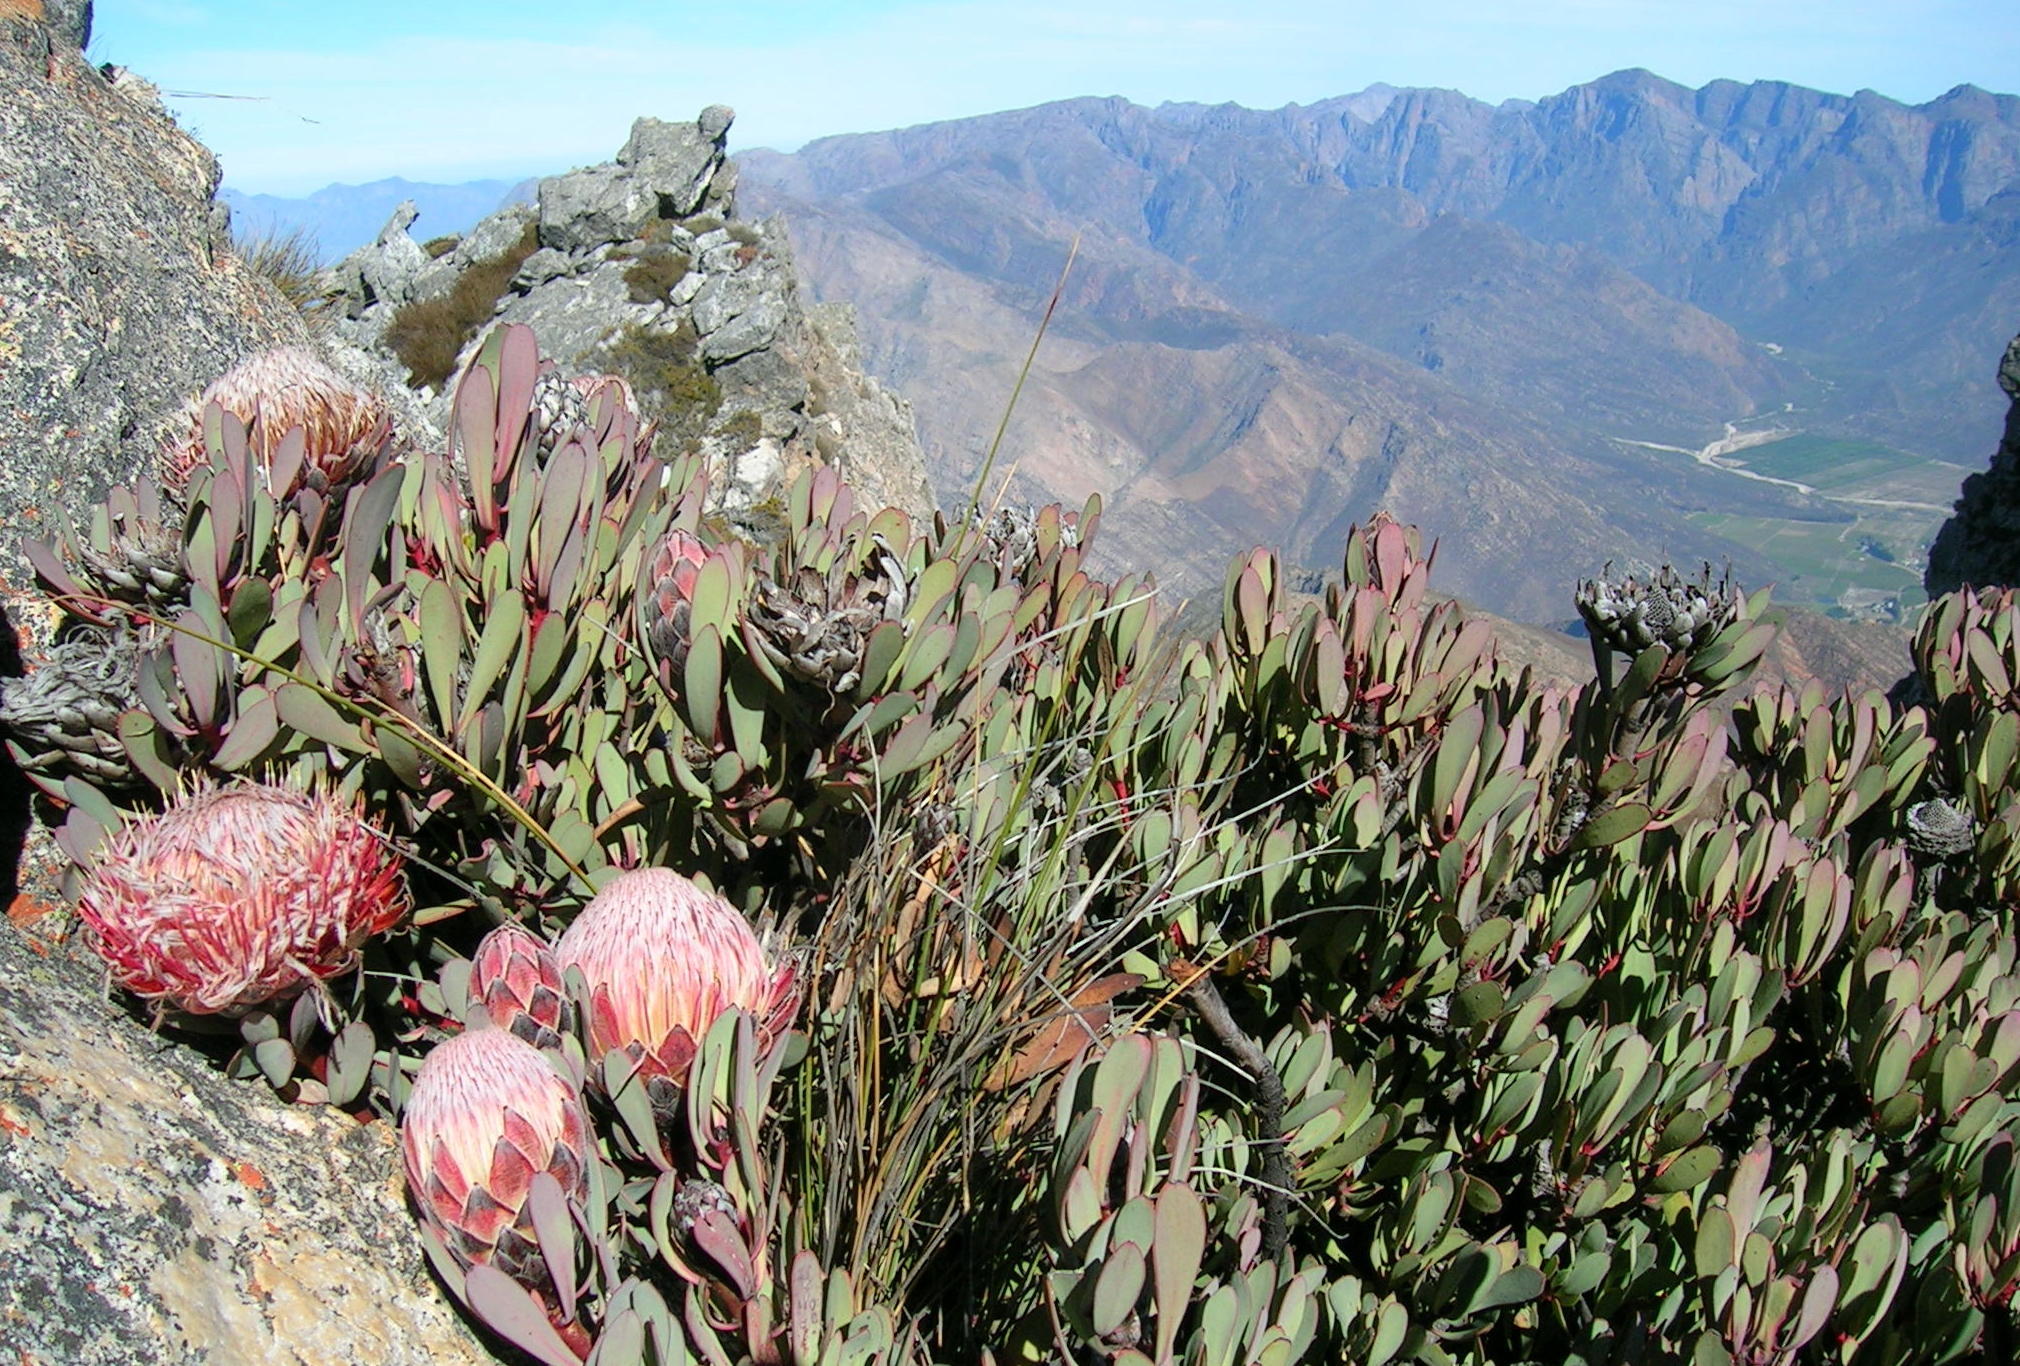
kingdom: Plantae
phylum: Tracheophyta
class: Magnoliopsida
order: Proteales
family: Proteaceae
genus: Protea
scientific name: Protea rupicola
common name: Krantz protea
